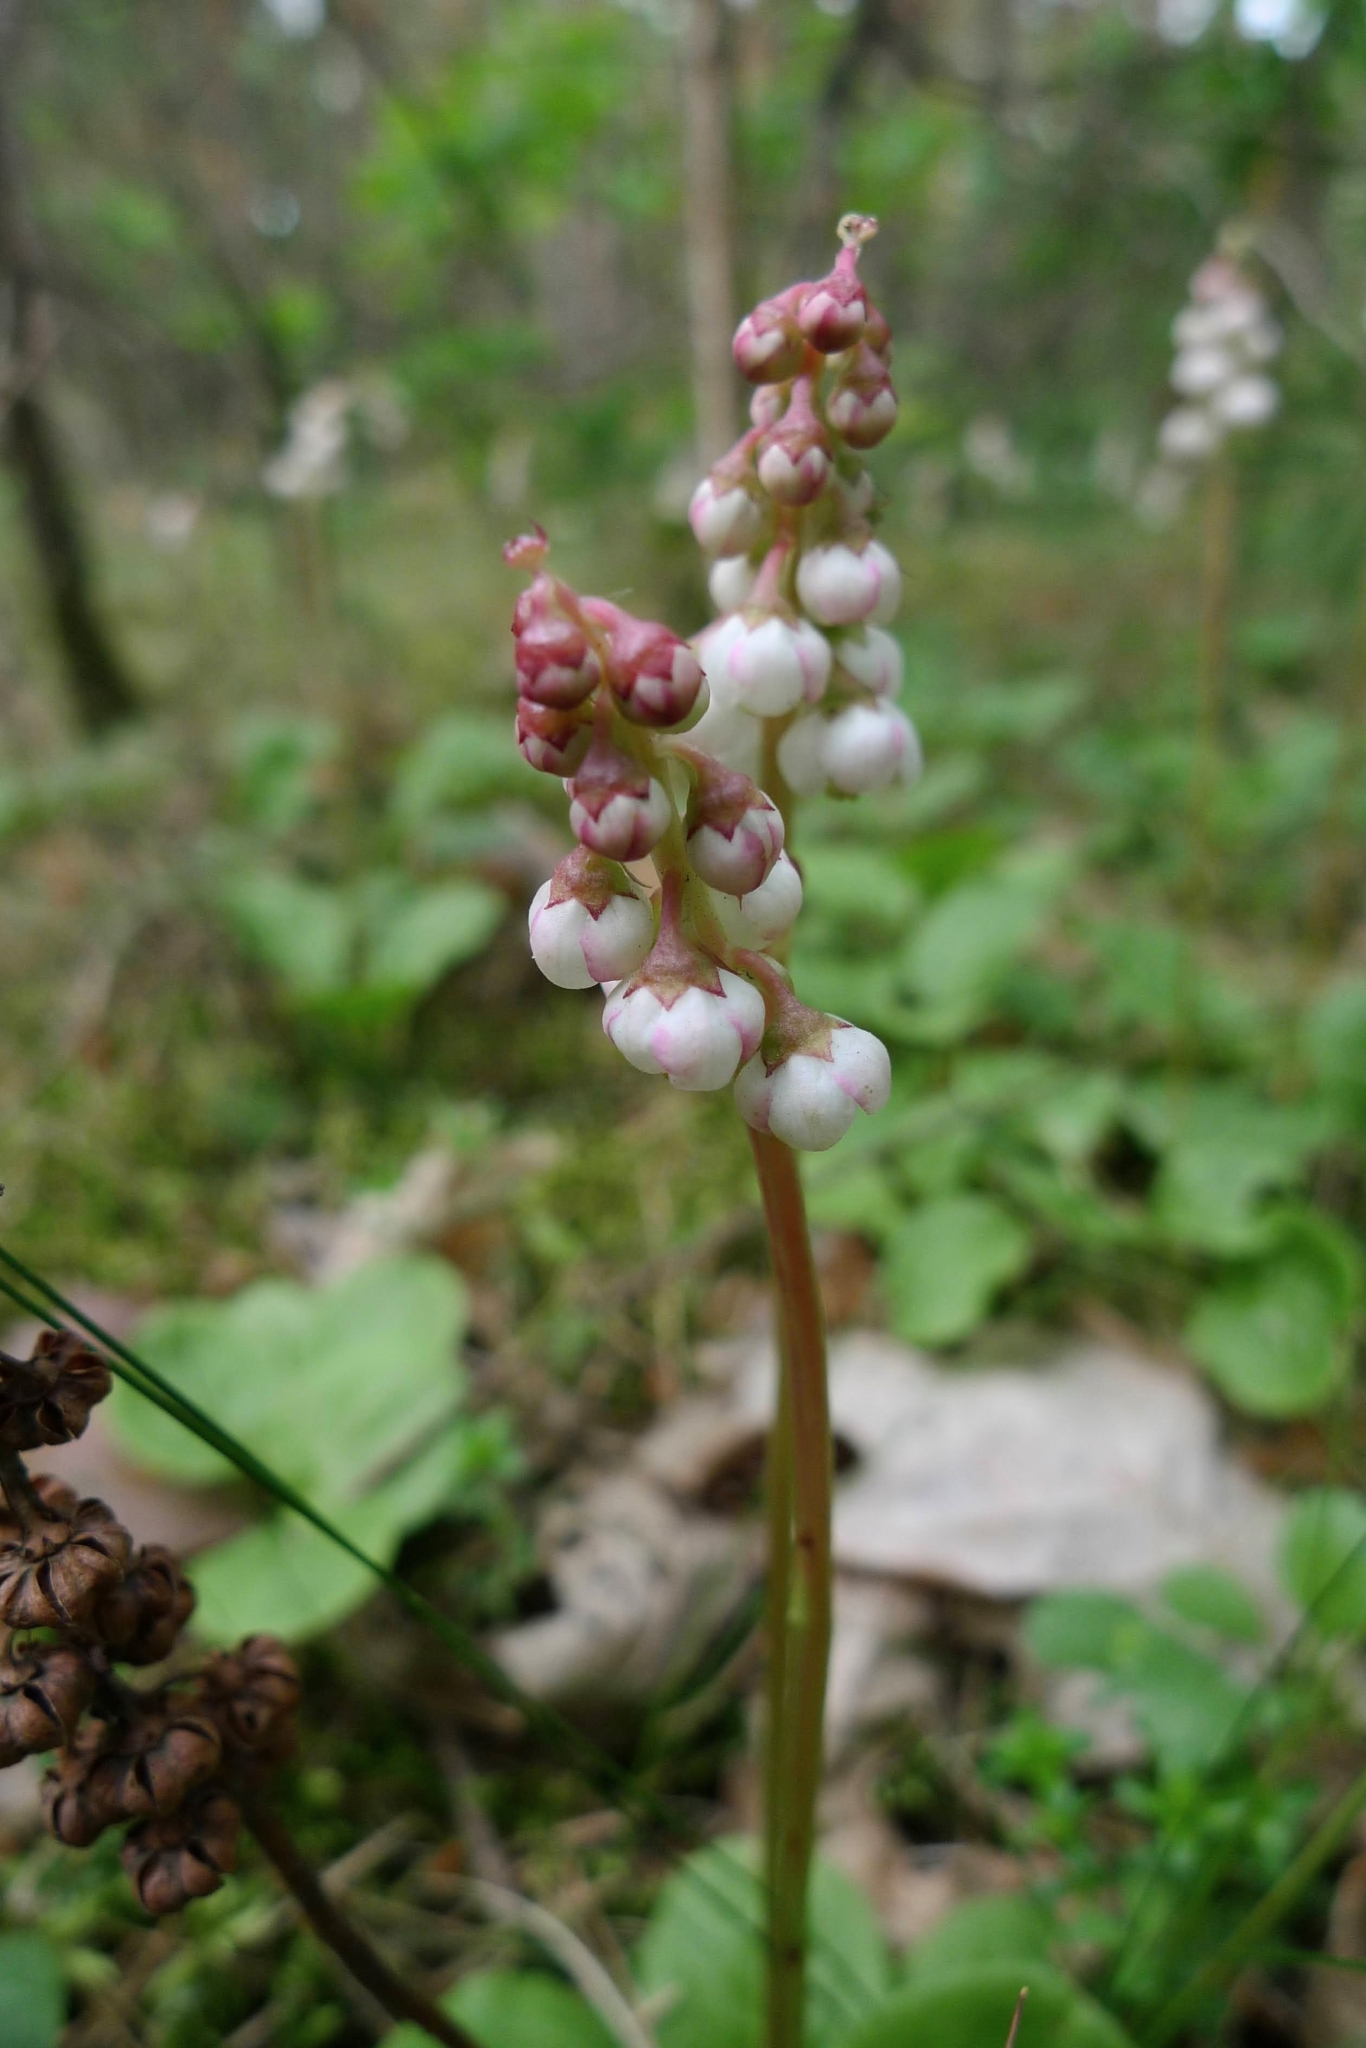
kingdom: Plantae
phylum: Tracheophyta
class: Magnoliopsida
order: Ericales
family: Ericaceae
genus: Pyrola
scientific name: Pyrola minor
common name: Common wintergreen
